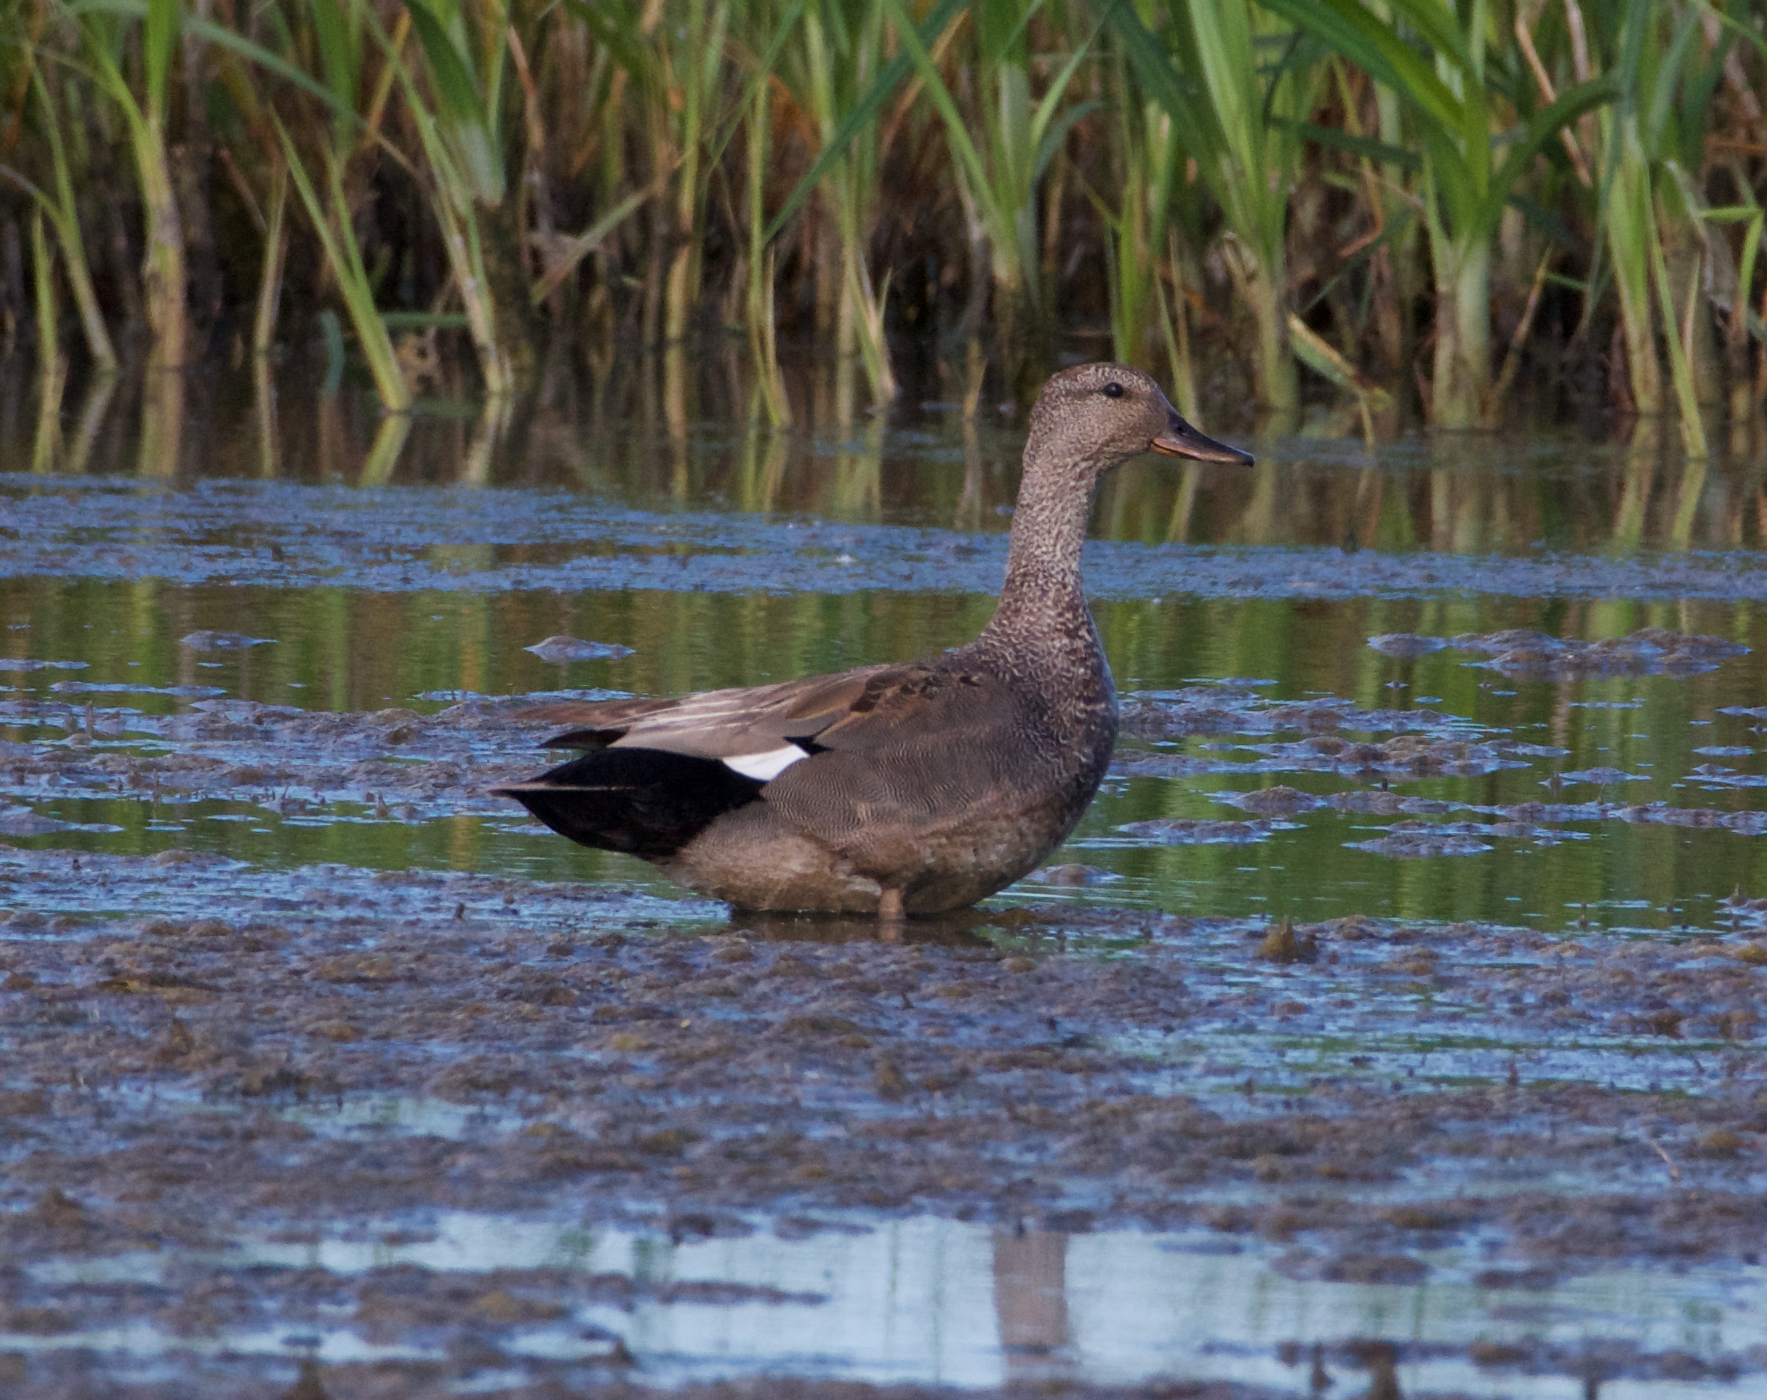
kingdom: Animalia
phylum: Chordata
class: Aves
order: Anseriformes
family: Anatidae
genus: Mareca
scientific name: Mareca strepera
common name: Gadwall
